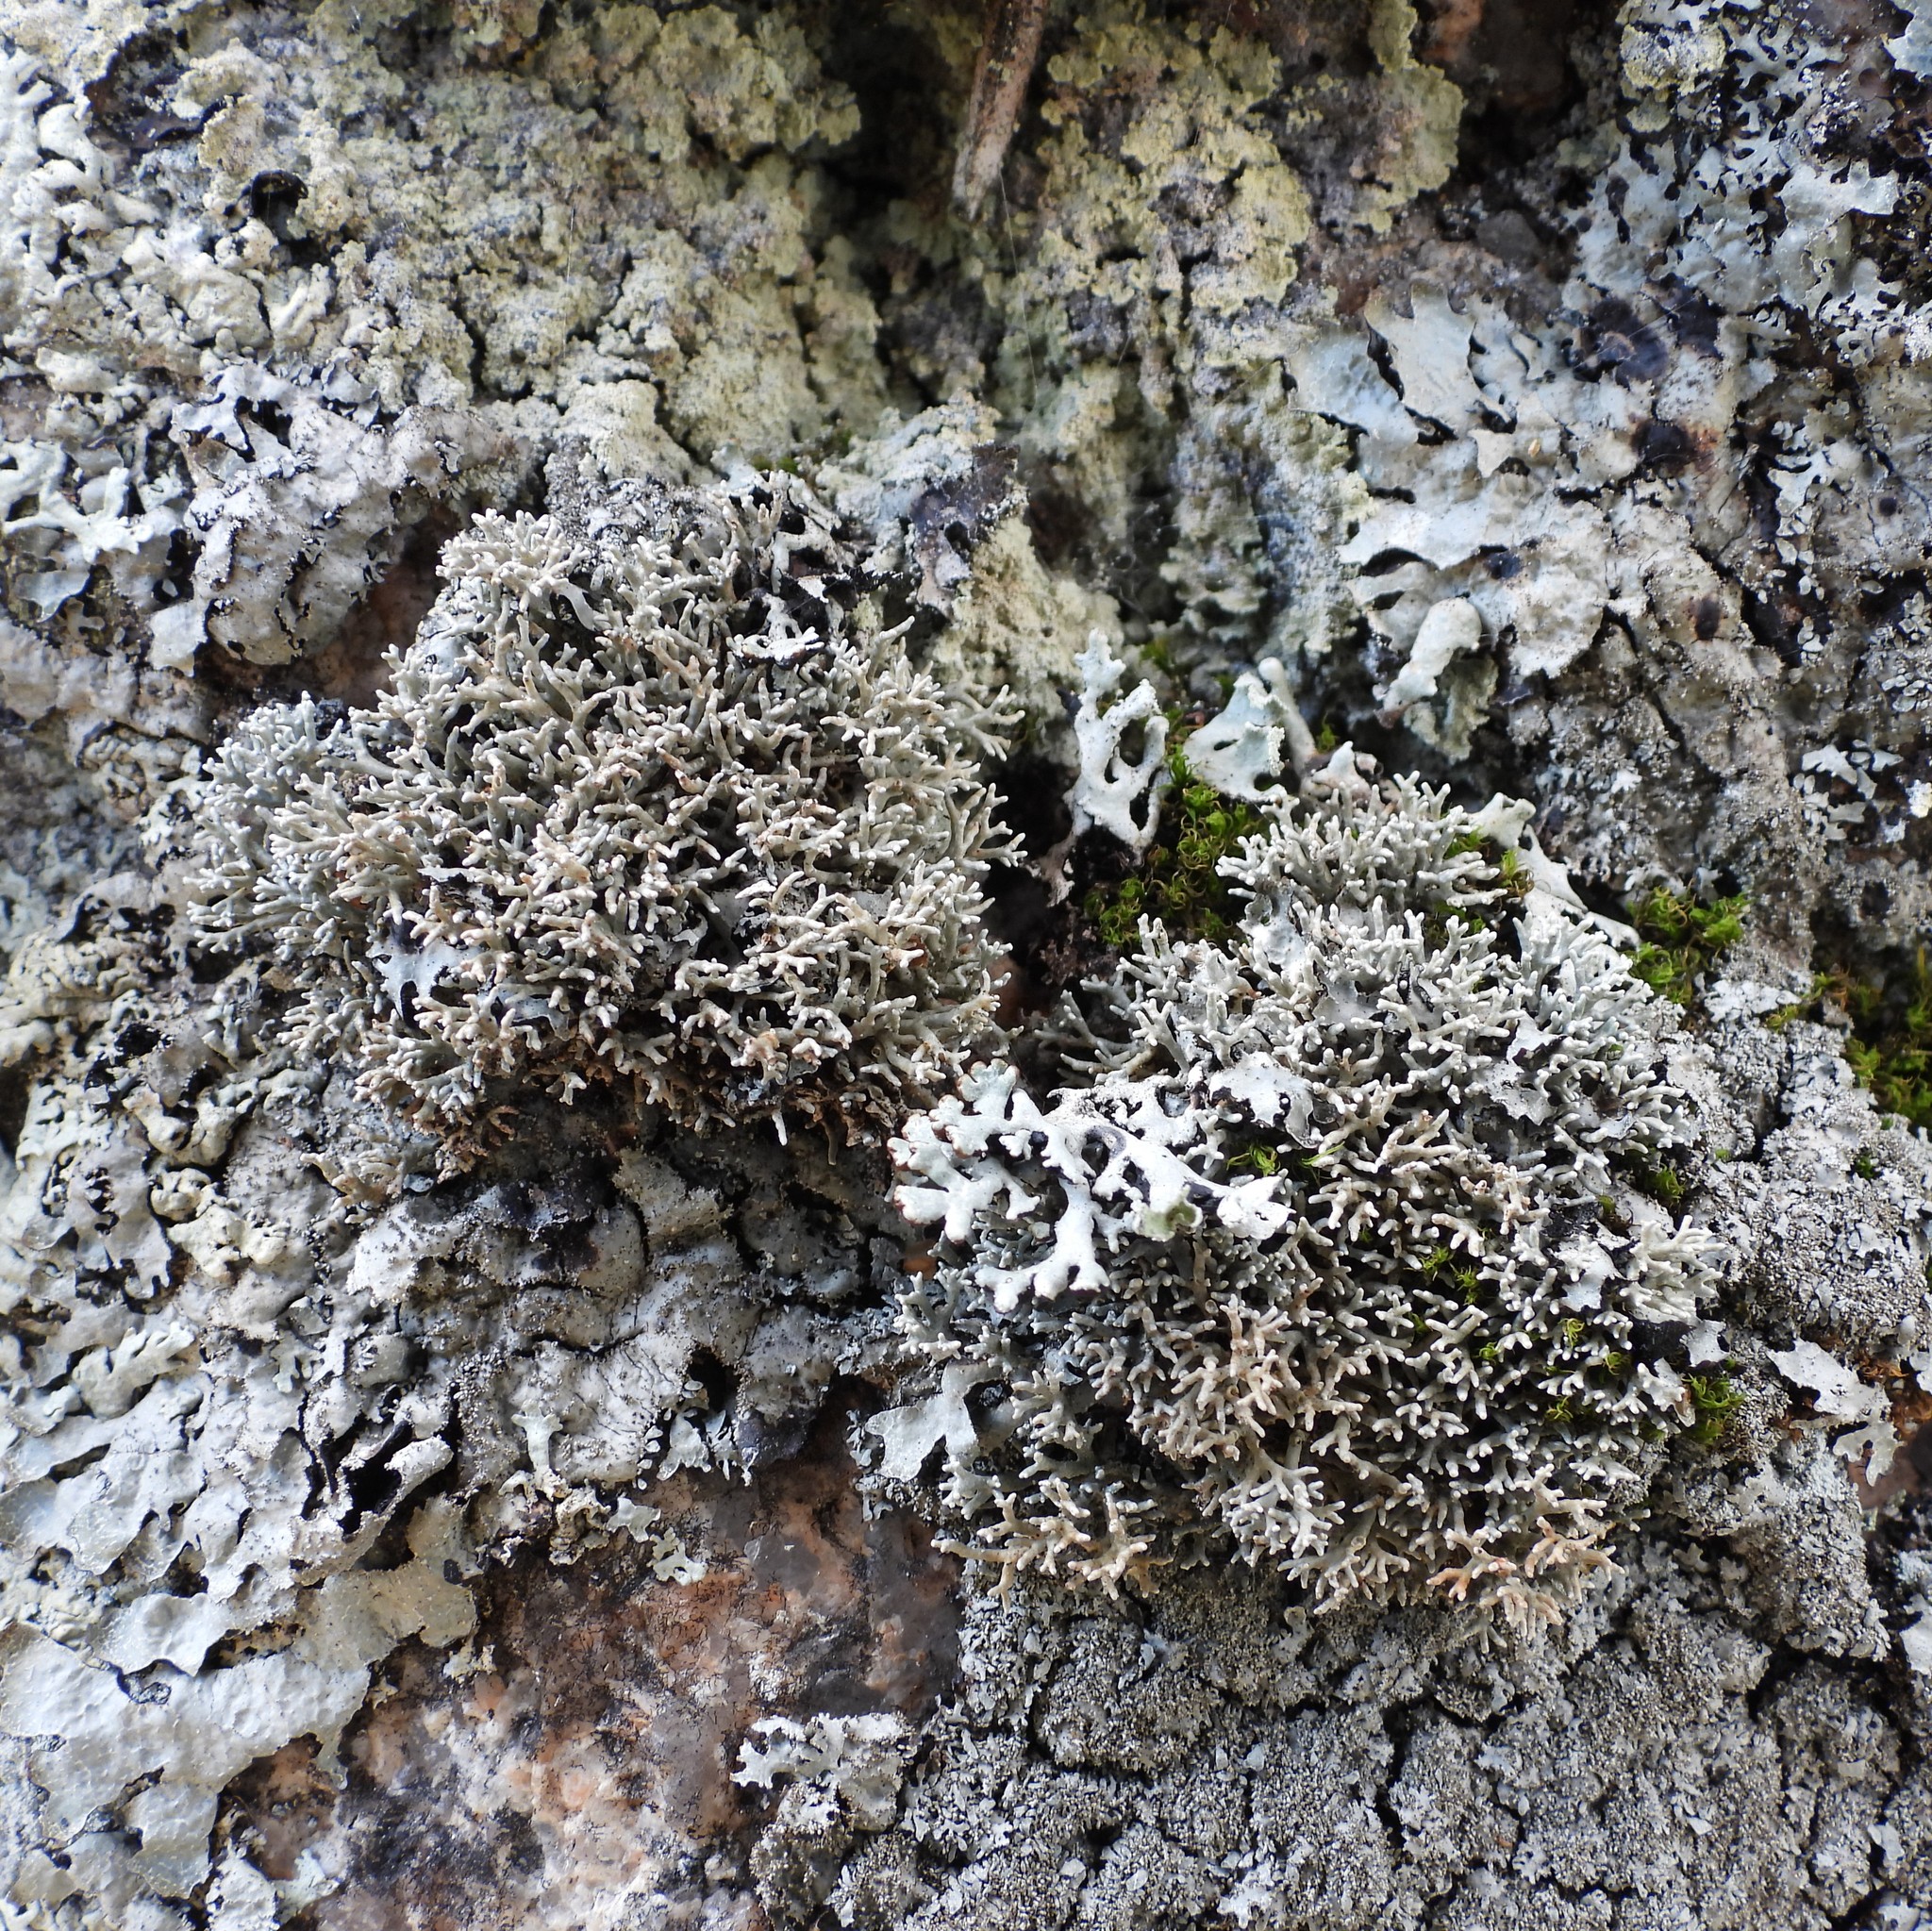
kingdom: Fungi
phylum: Ascomycota
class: Lecanoromycetes
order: Lecanorales
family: Sphaerophoraceae
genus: Sphaerophorus
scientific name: Sphaerophorus fragilis
